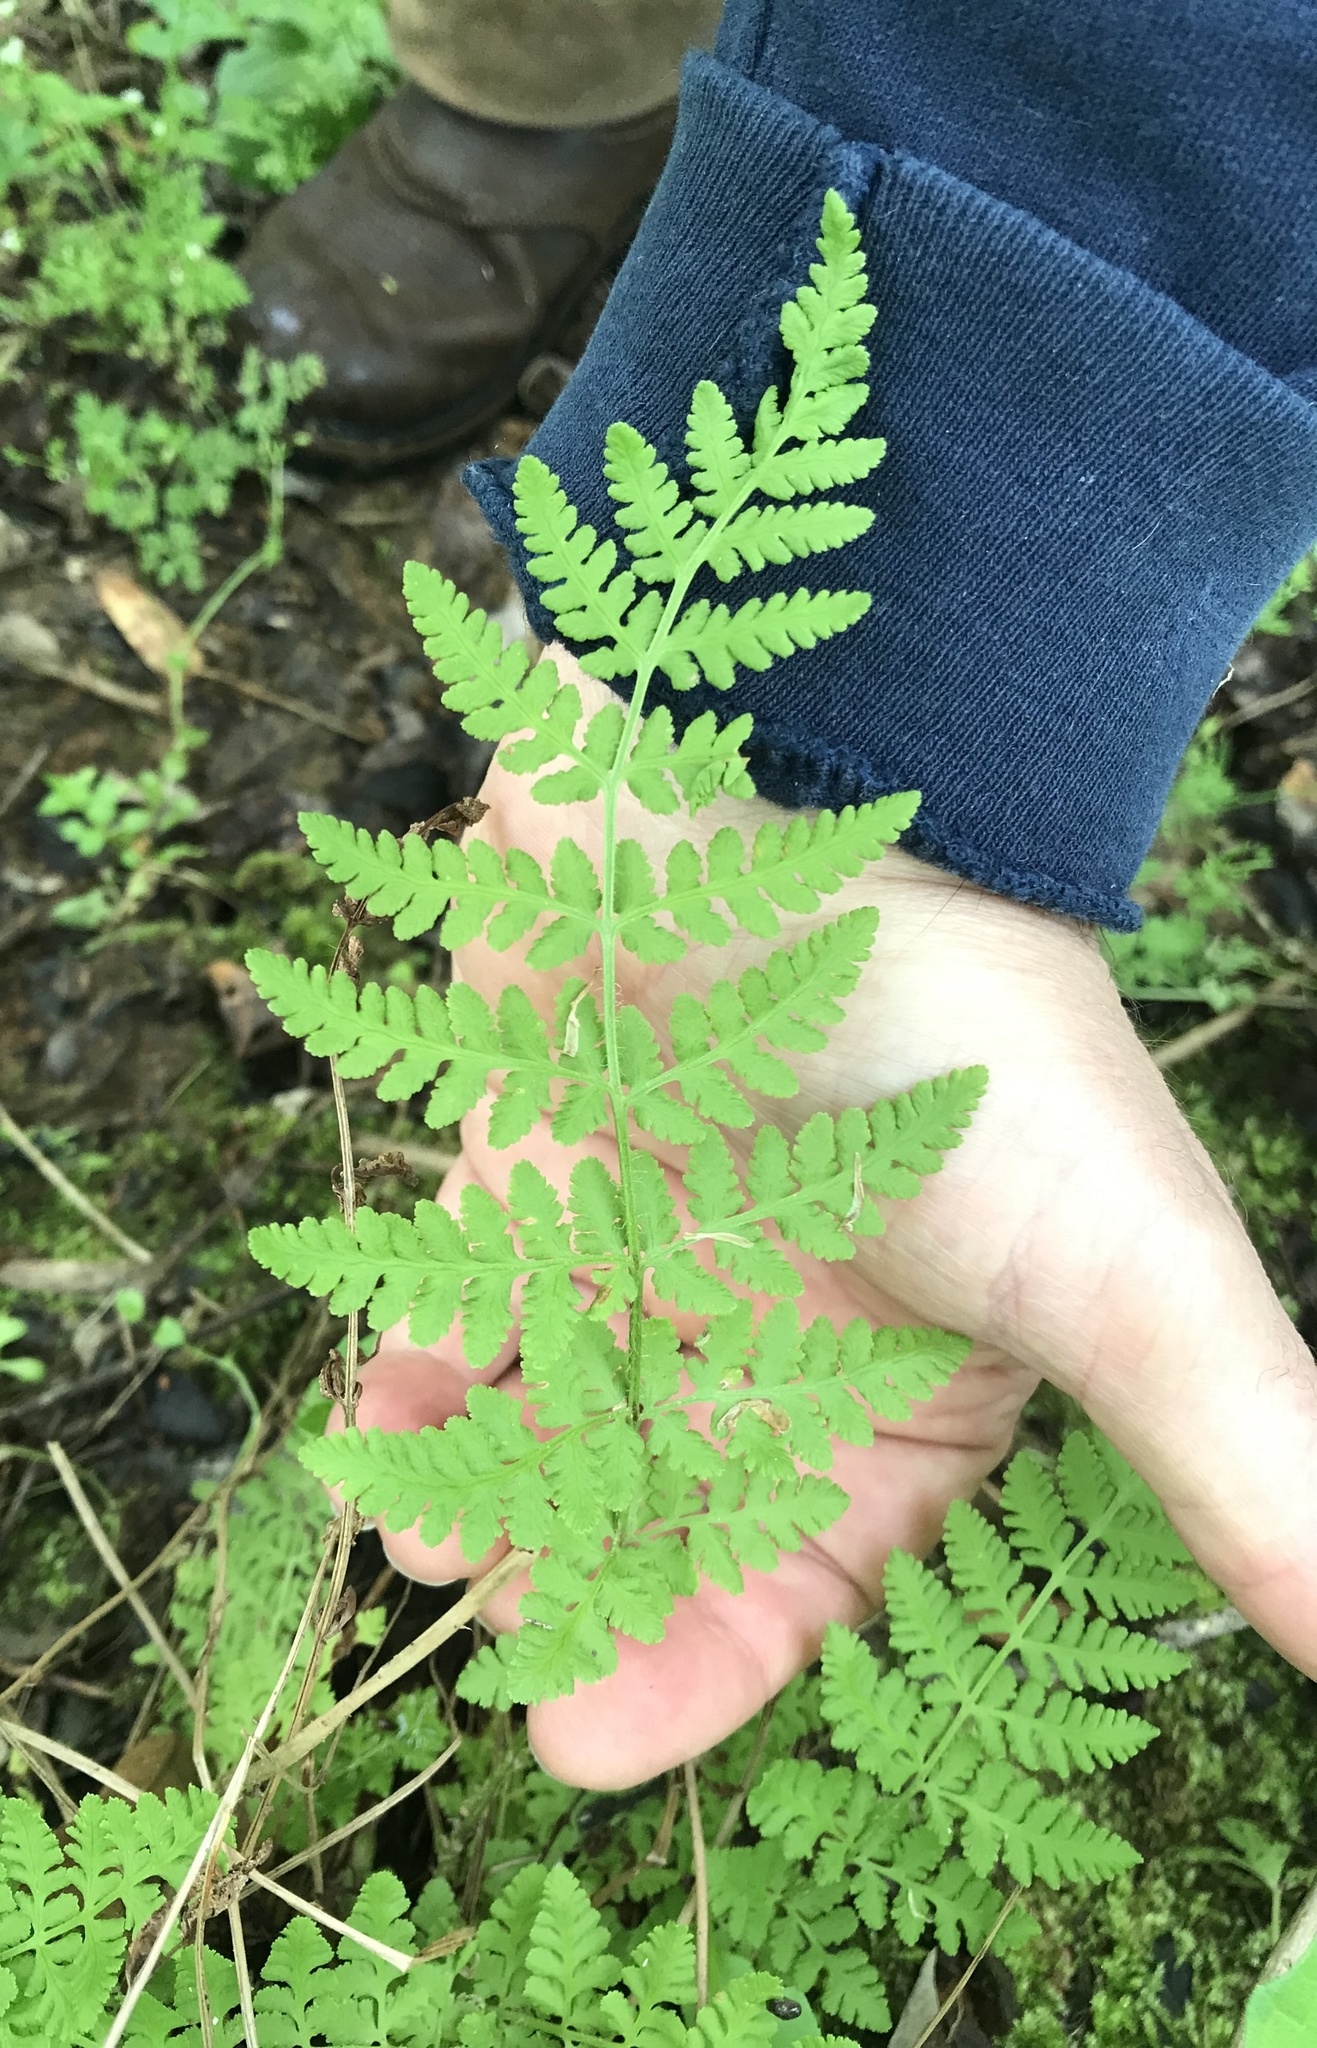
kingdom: Plantae
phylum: Tracheophyta
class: Polypodiopsida
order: Polypodiales
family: Woodsiaceae
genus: Physematium
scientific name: Physematium obtusum
